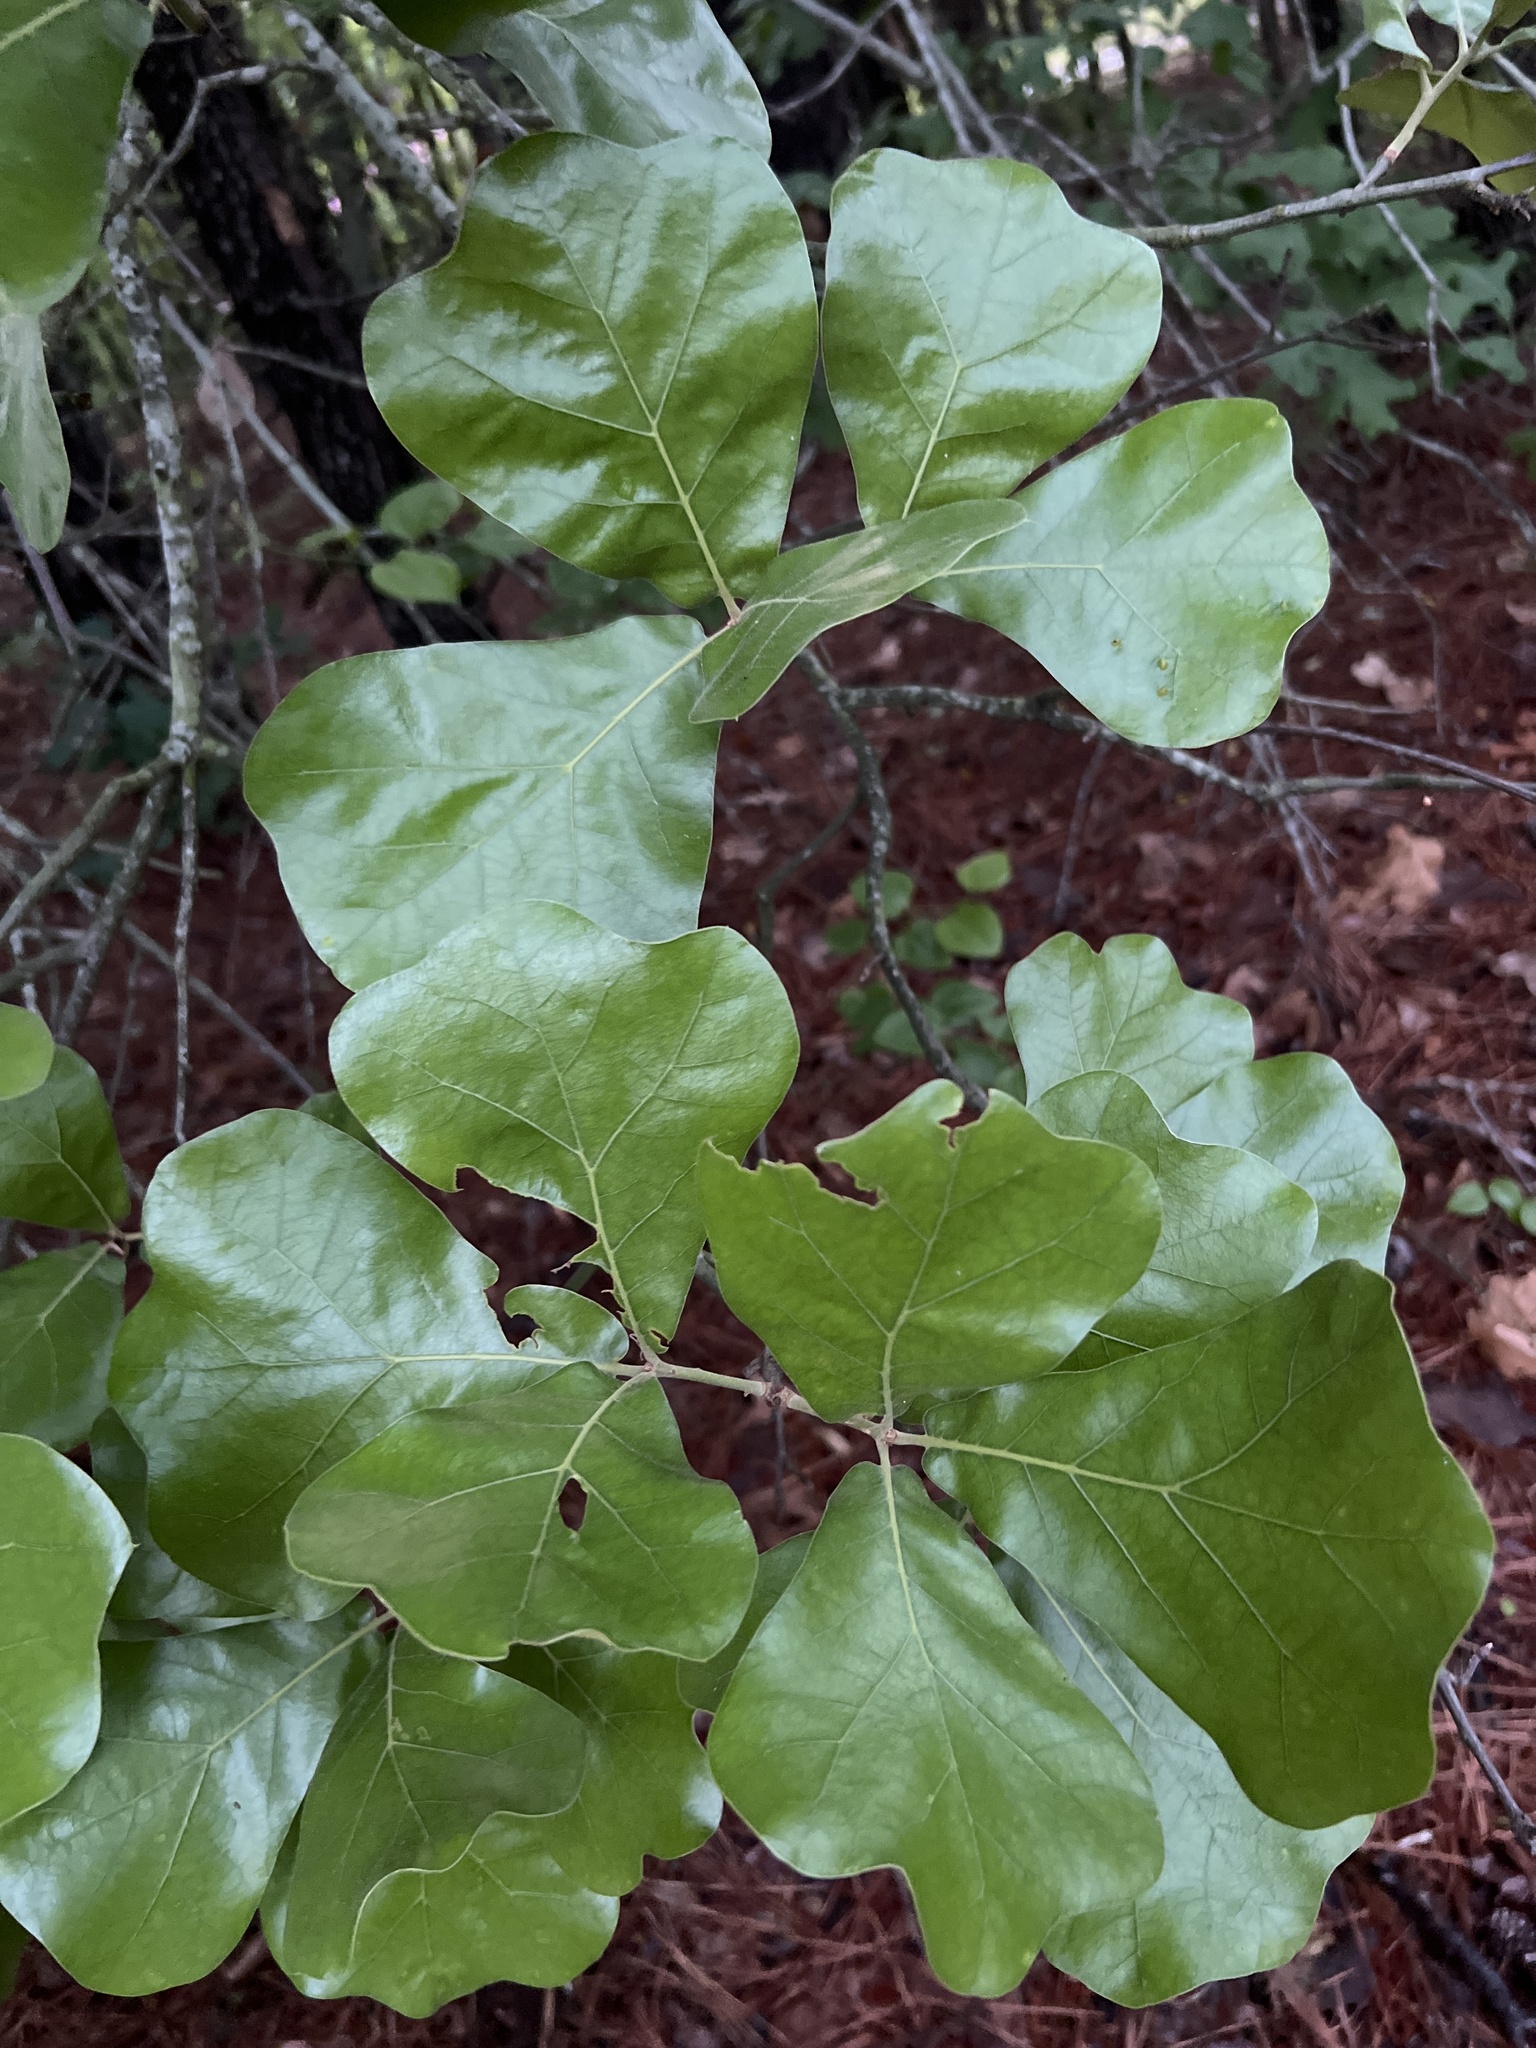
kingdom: Plantae
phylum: Tracheophyta
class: Magnoliopsida
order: Fagales
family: Fagaceae
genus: Quercus
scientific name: Quercus marilandica
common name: Blackjack oak
